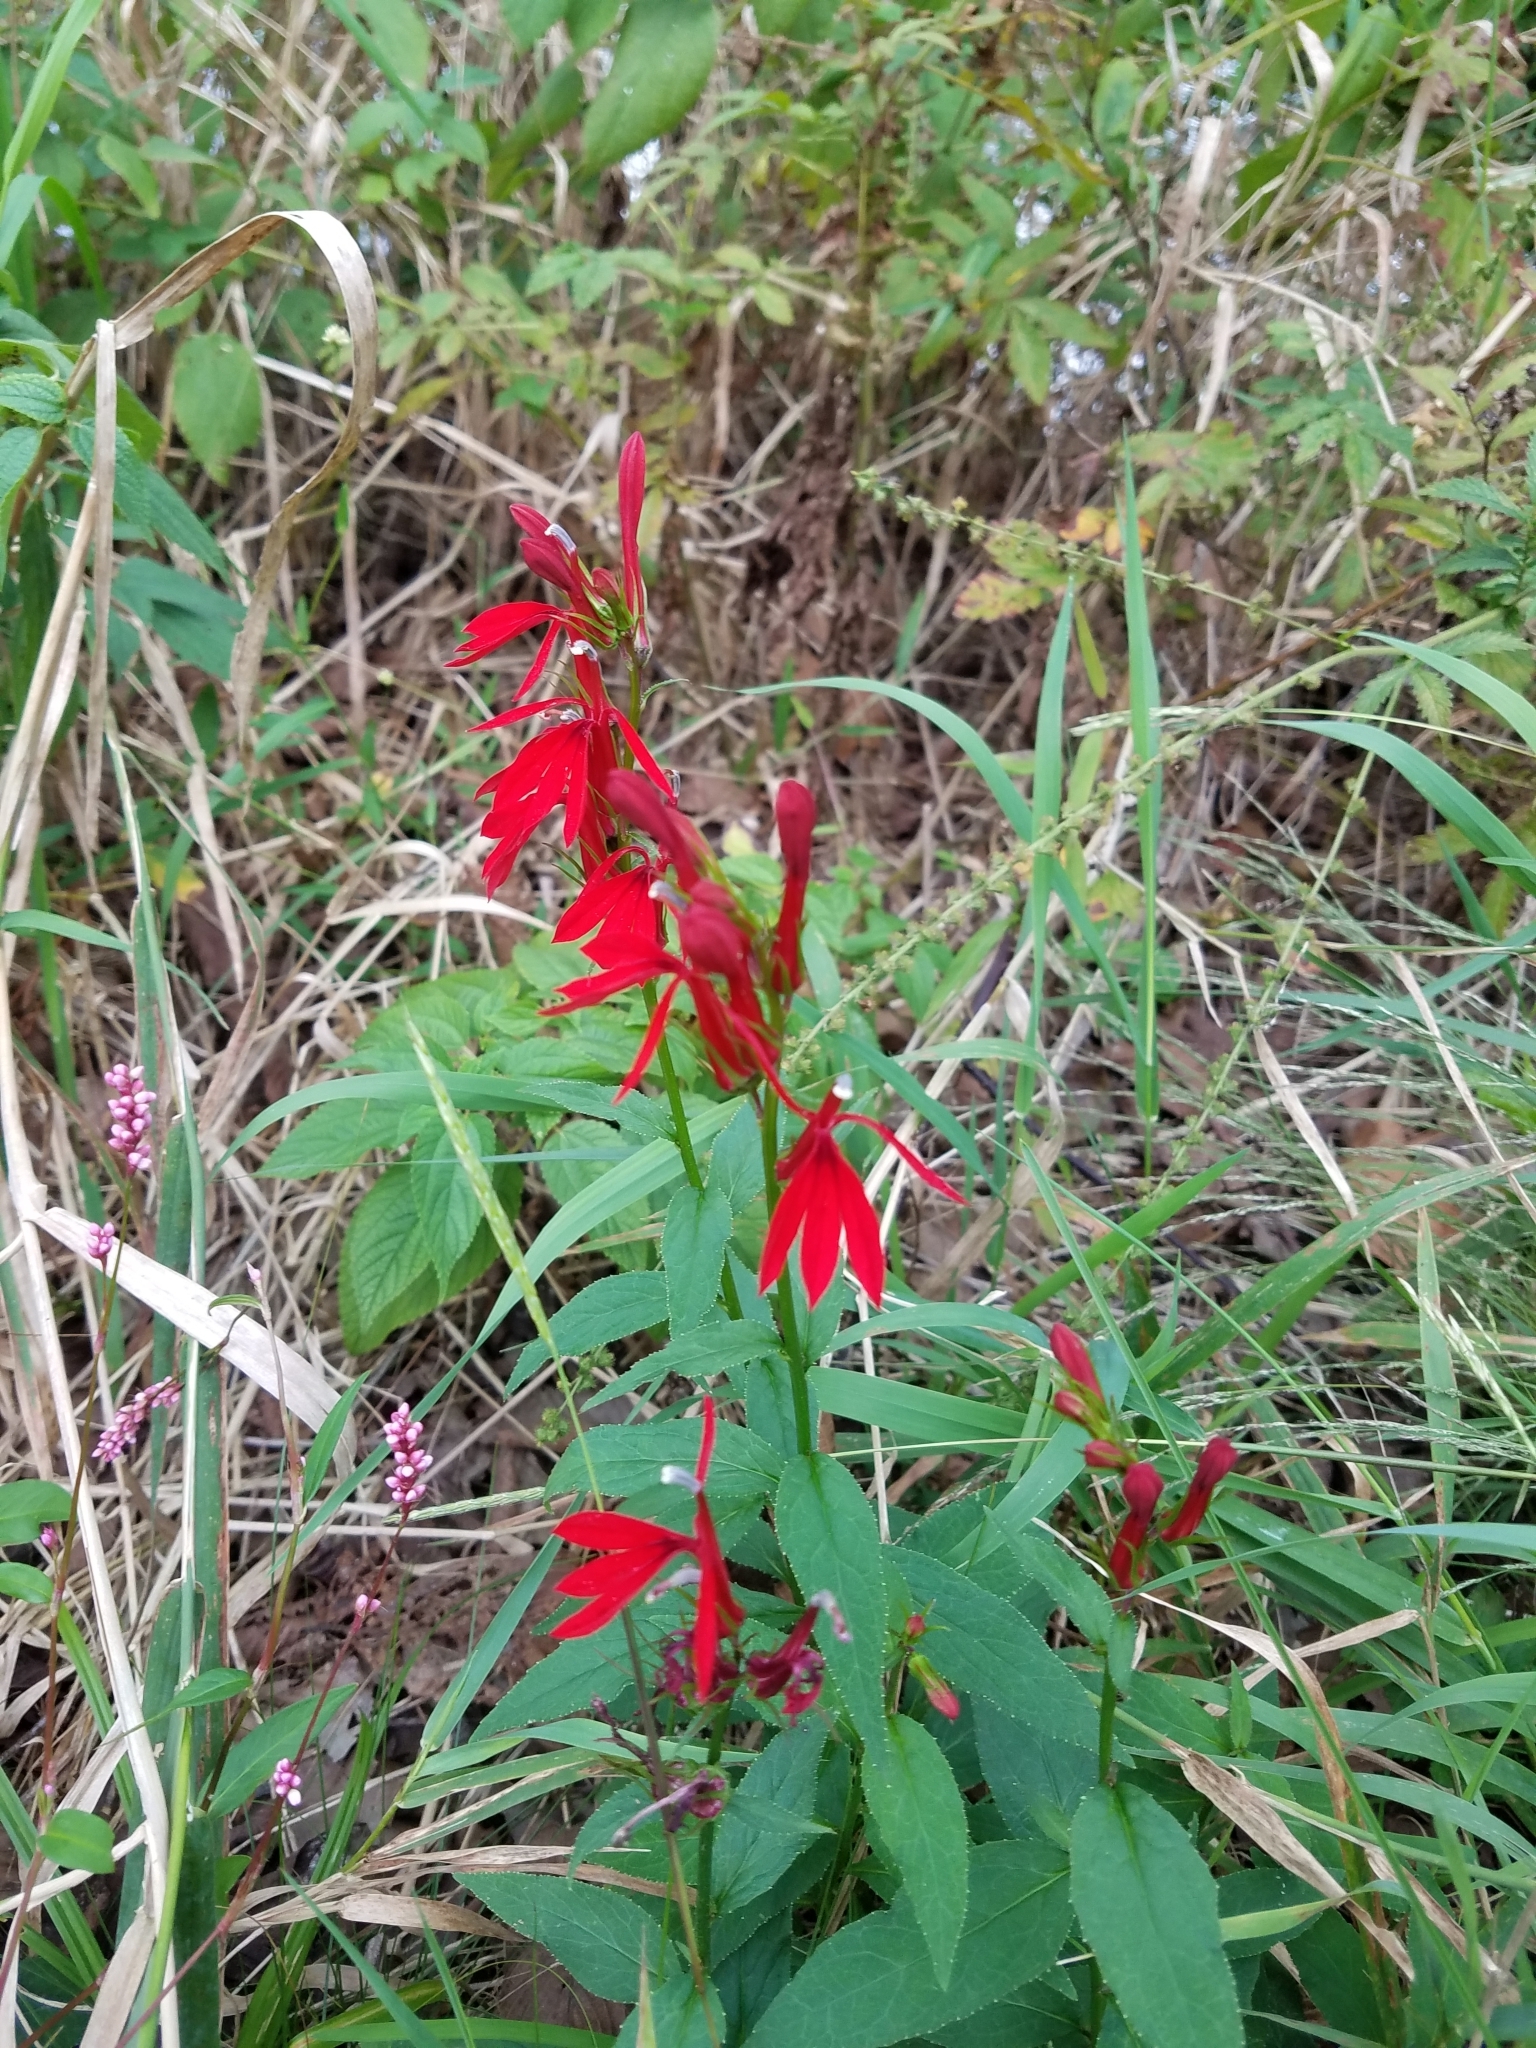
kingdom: Plantae
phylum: Tracheophyta
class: Magnoliopsida
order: Asterales
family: Campanulaceae
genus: Lobelia
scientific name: Lobelia cardinalis
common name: Cardinal flower
